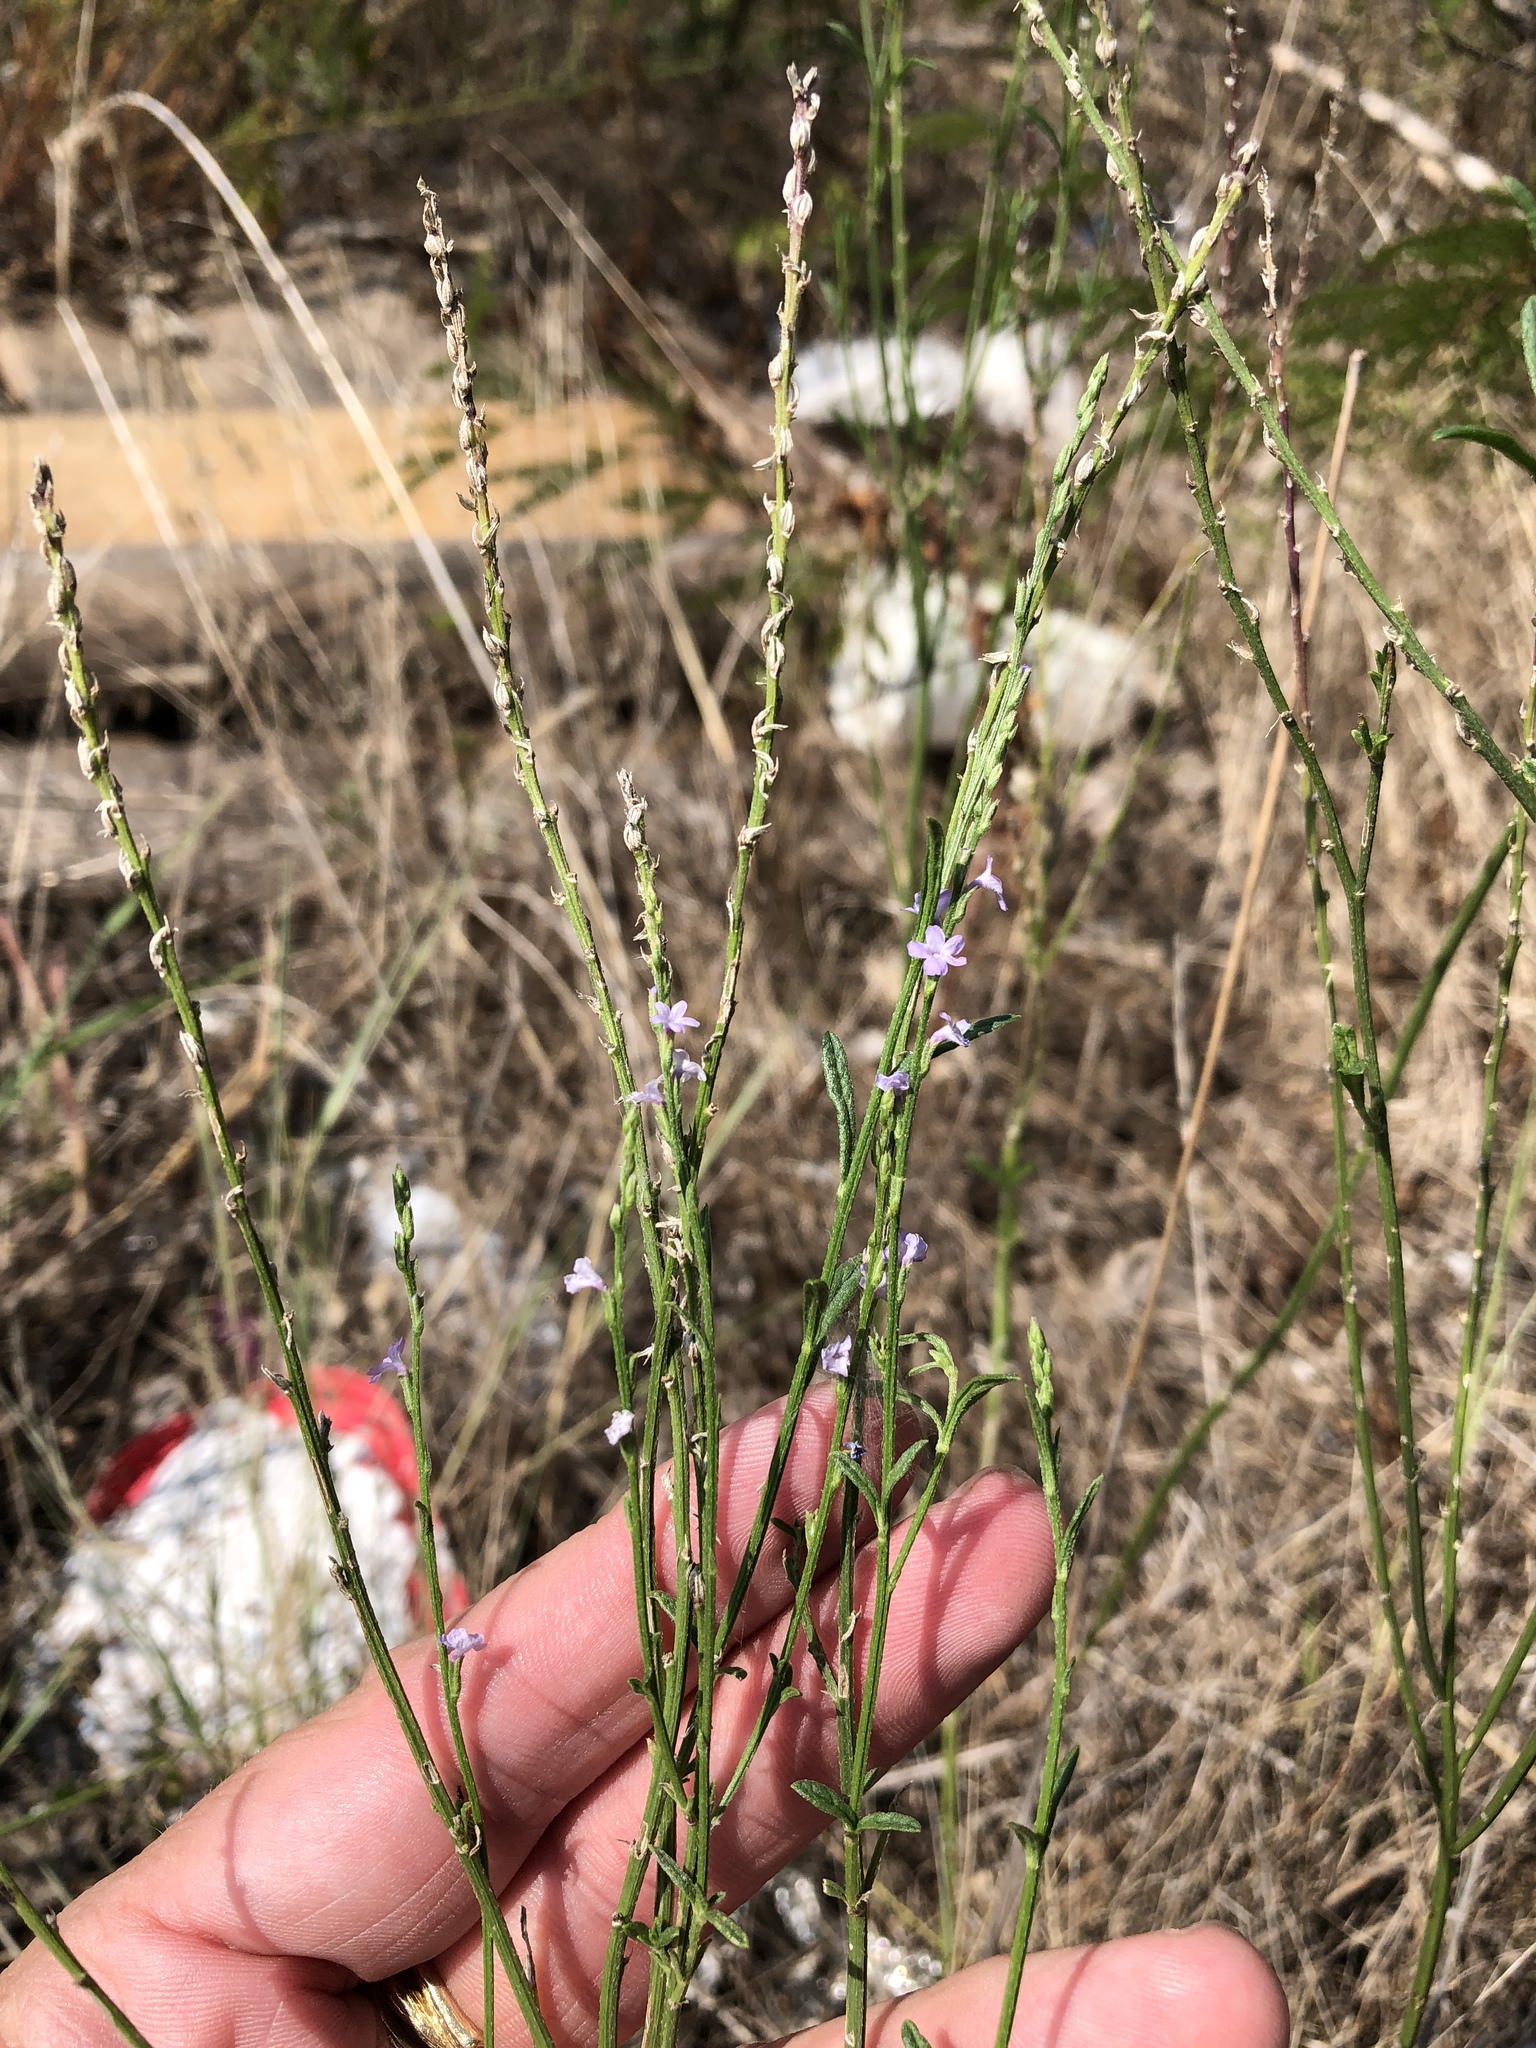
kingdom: Plantae
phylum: Tracheophyta
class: Magnoliopsida
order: Lamiales
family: Verbenaceae
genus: Verbena
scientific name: Verbena halei
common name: Texas vervain
